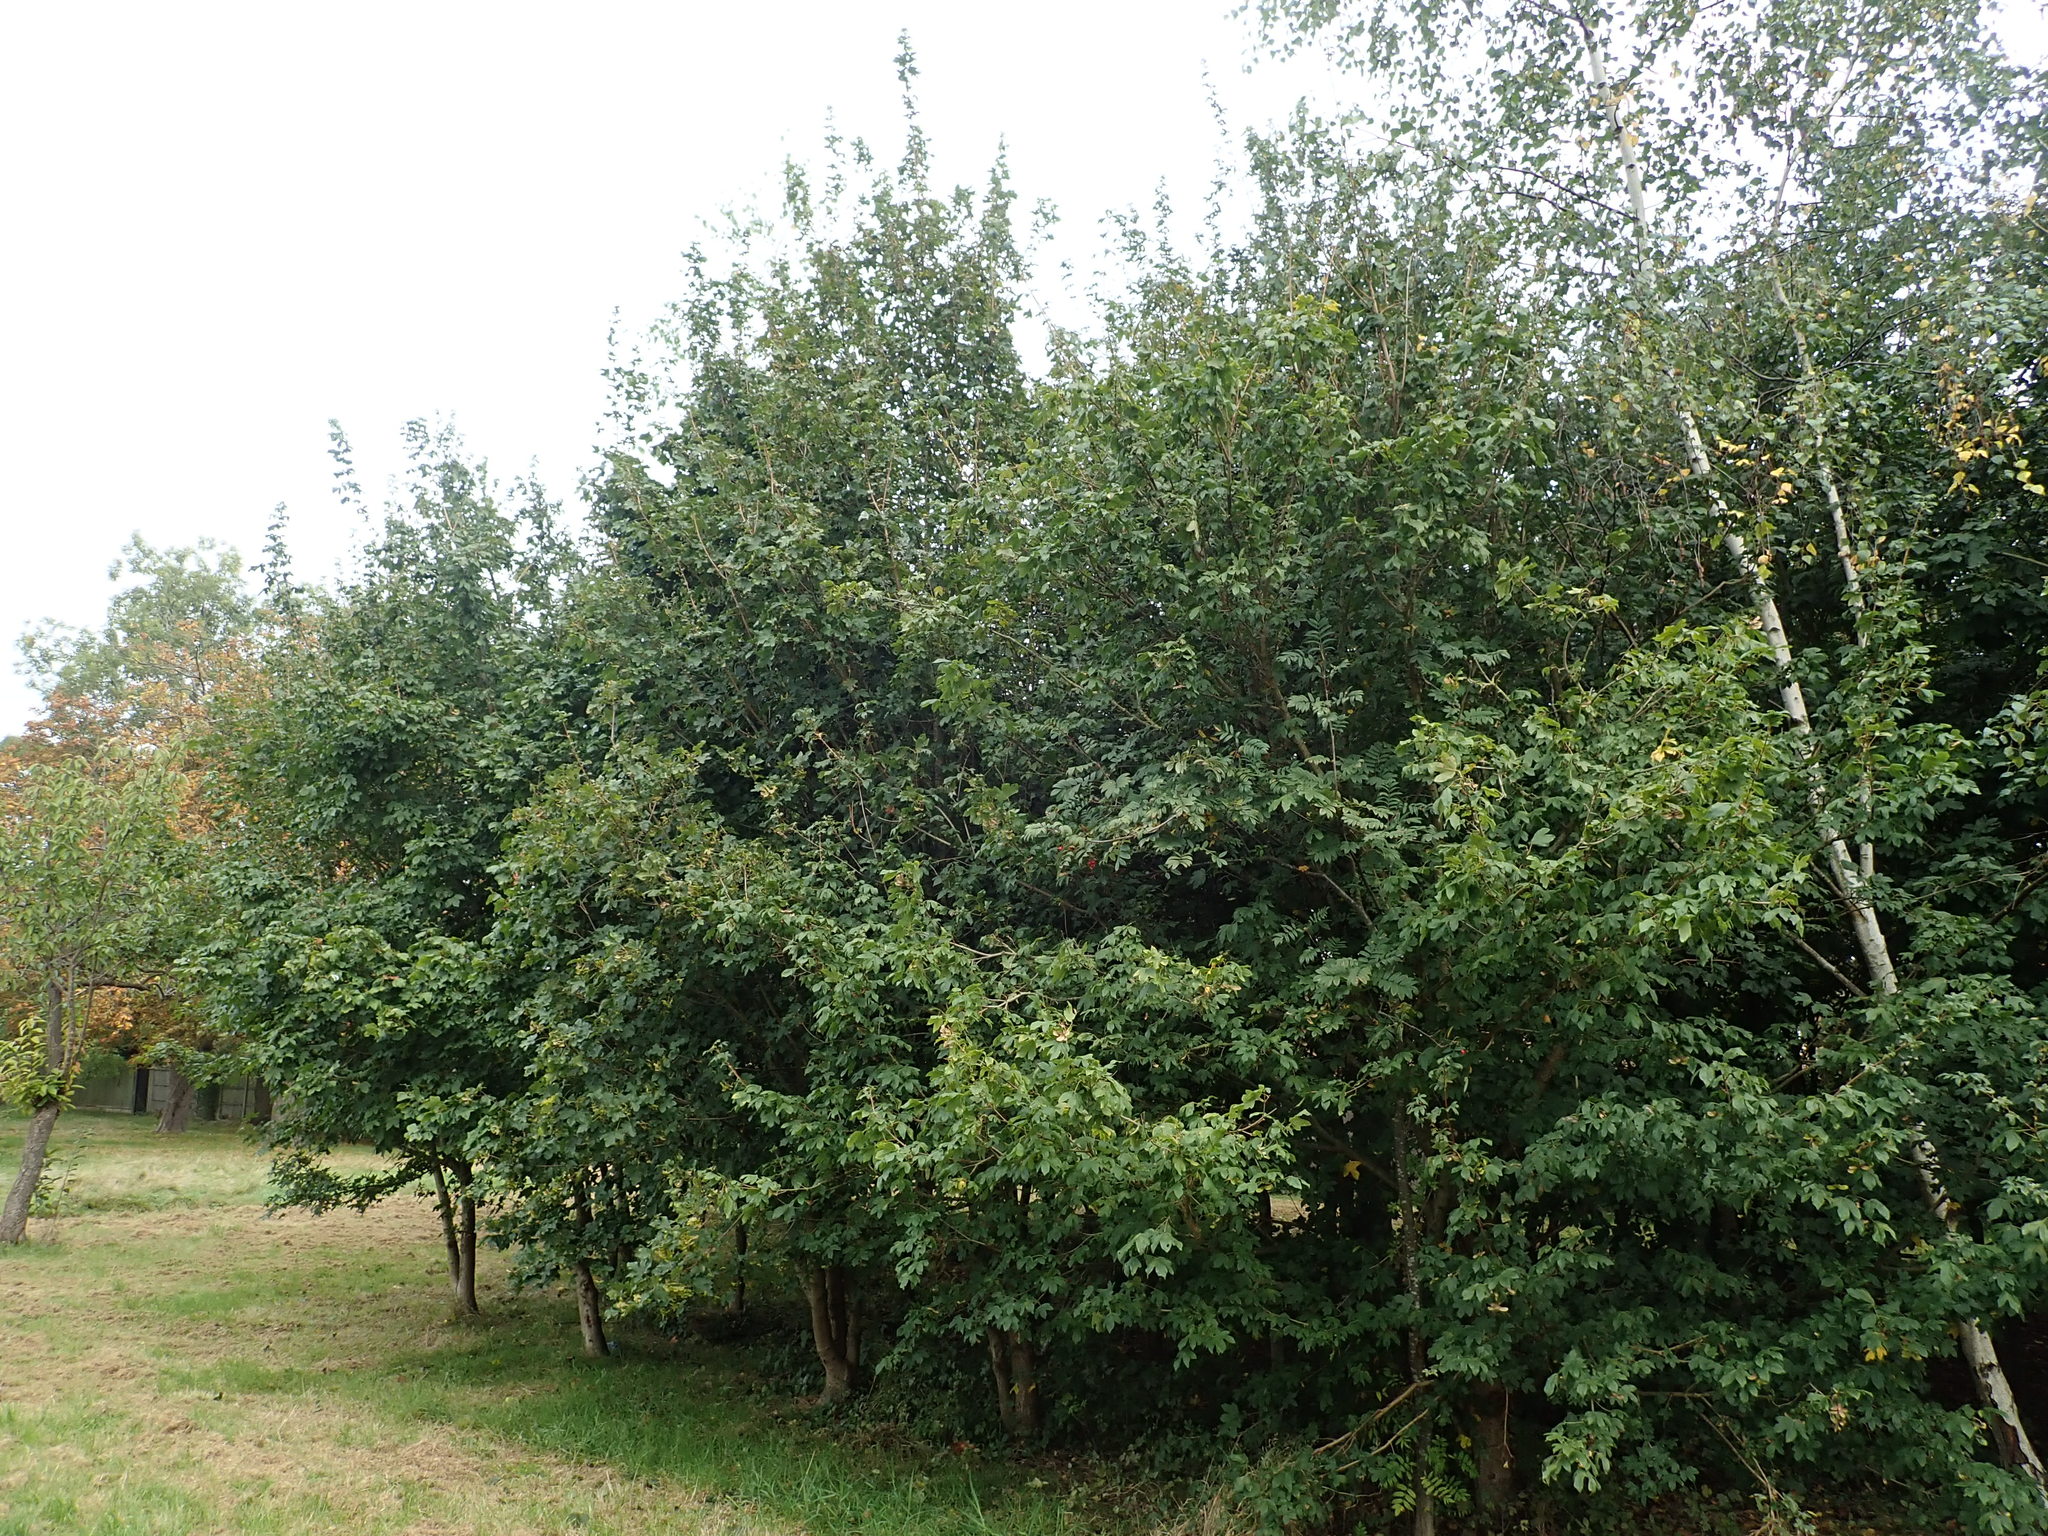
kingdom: Plantae
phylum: Tracheophyta
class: Magnoliopsida
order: Sapindales
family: Sapindaceae
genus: Acer
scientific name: Acer campestre
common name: Field maple
